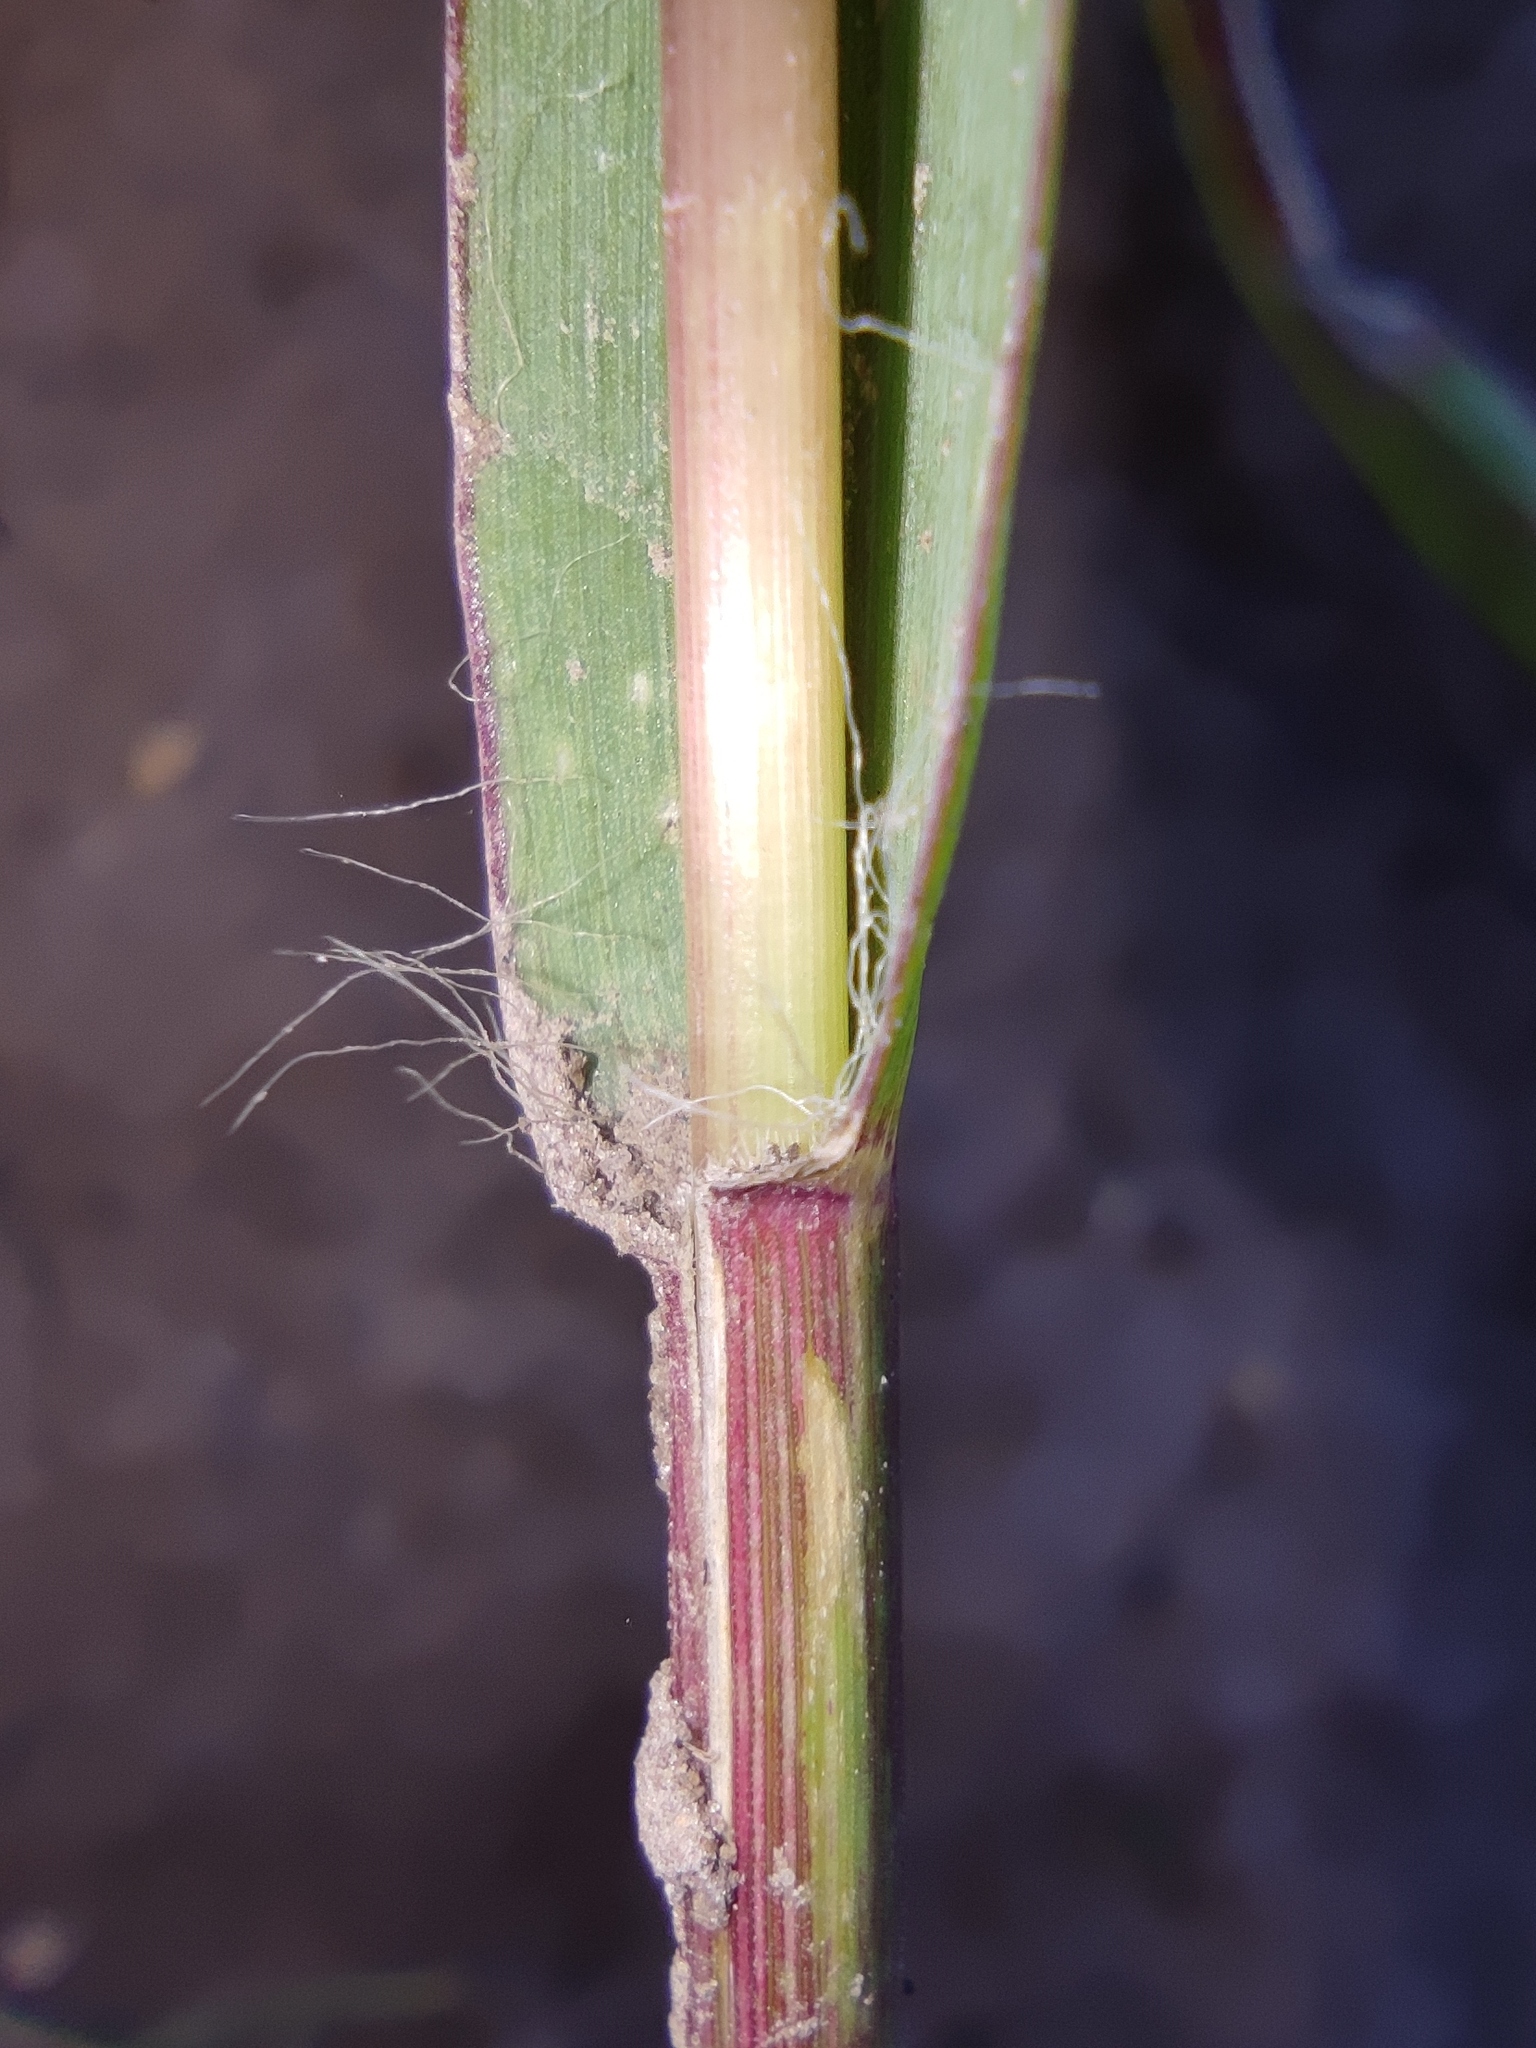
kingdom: Plantae
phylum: Tracheophyta
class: Liliopsida
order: Poales
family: Poaceae
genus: Setaria
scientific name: Setaria pumila
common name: Yellow bristle-grass
